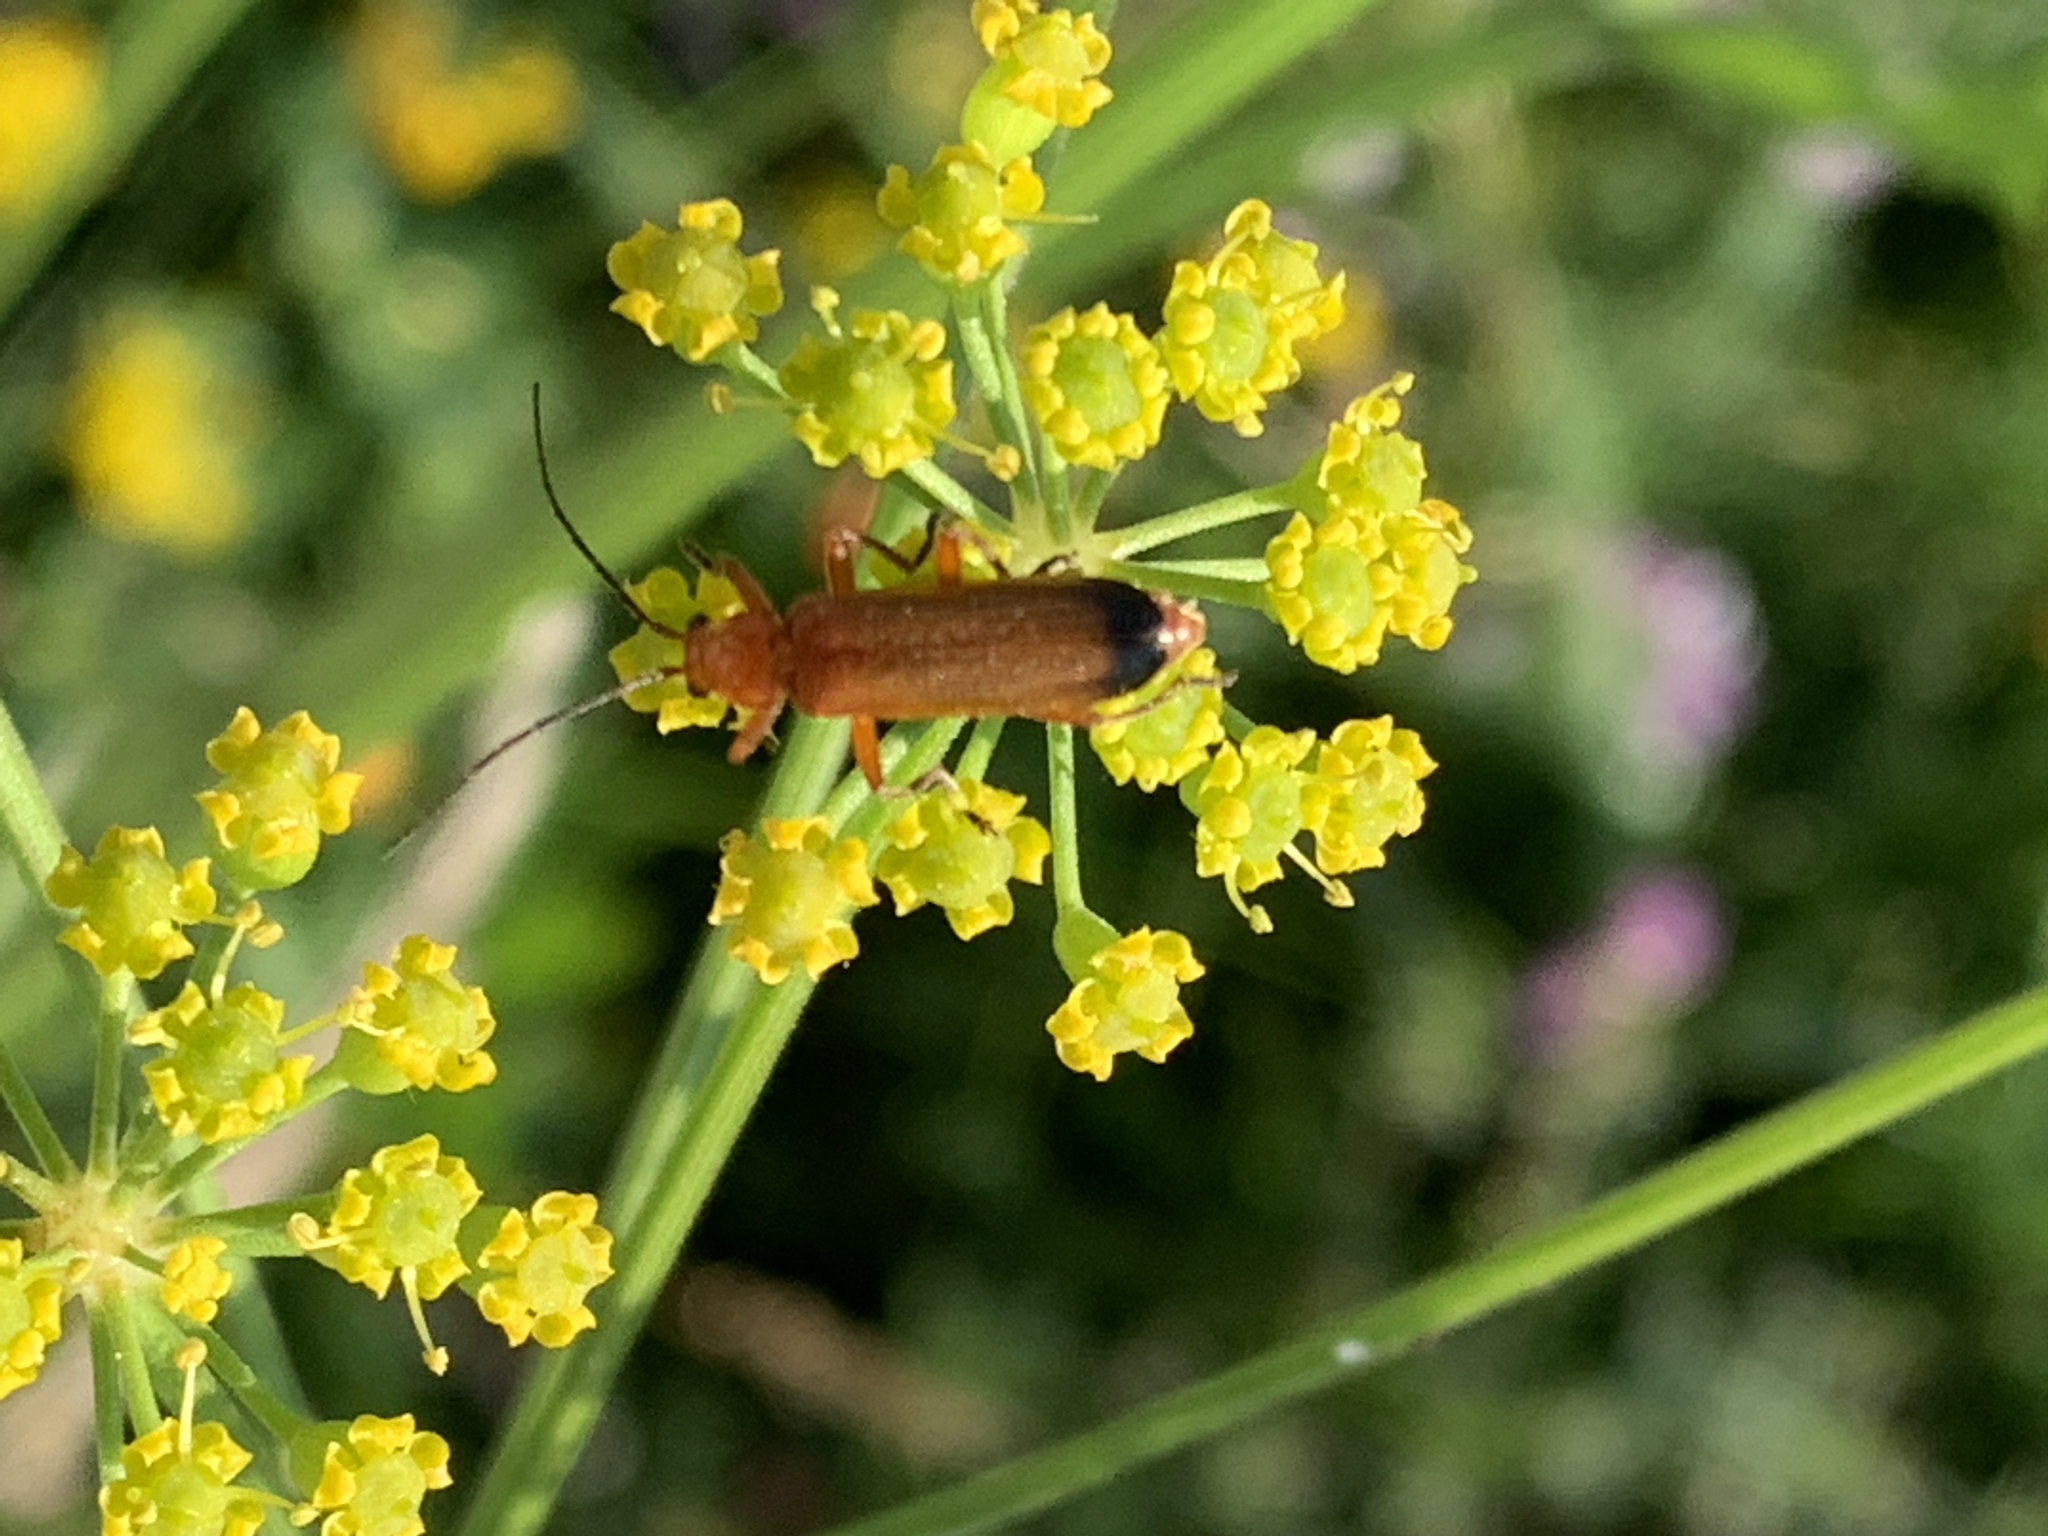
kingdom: Animalia
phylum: Arthropoda
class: Insecta
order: Coleoptera
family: Cantharidae
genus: Rhagonycha
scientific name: Rhagonycha fulva
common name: Common red soldier beetle
